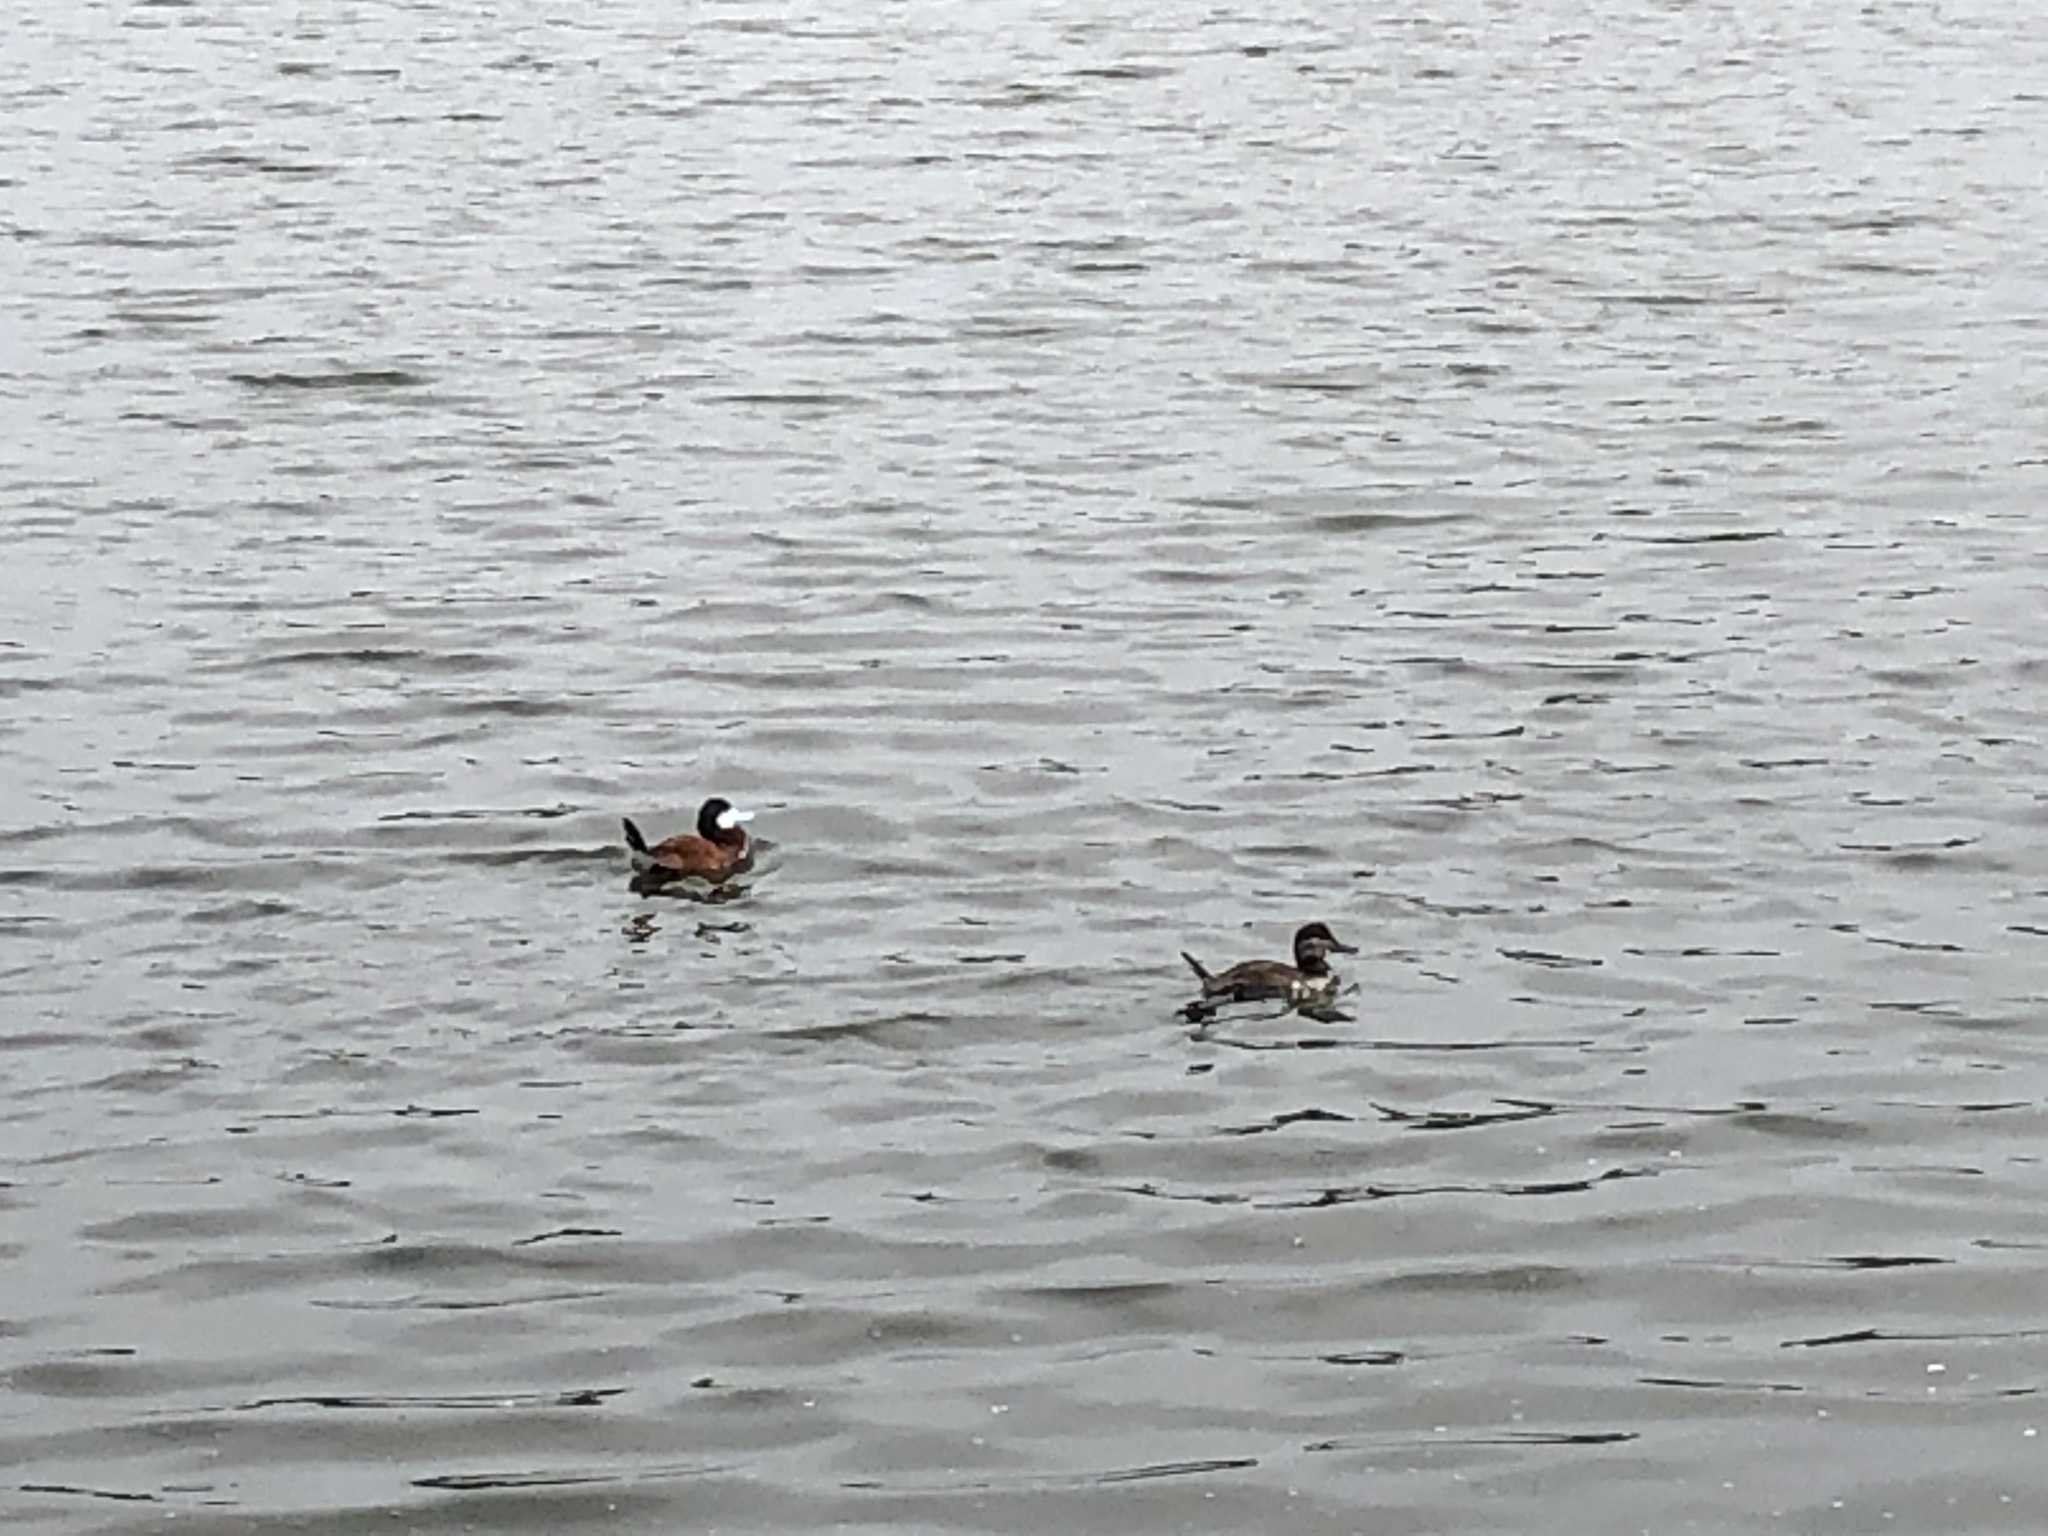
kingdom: Animalia
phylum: Chordata
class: Aves
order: Anseriformes
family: Anatidae
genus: Oxyura
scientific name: Oxyura jamaicensis
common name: Ruddy duck
